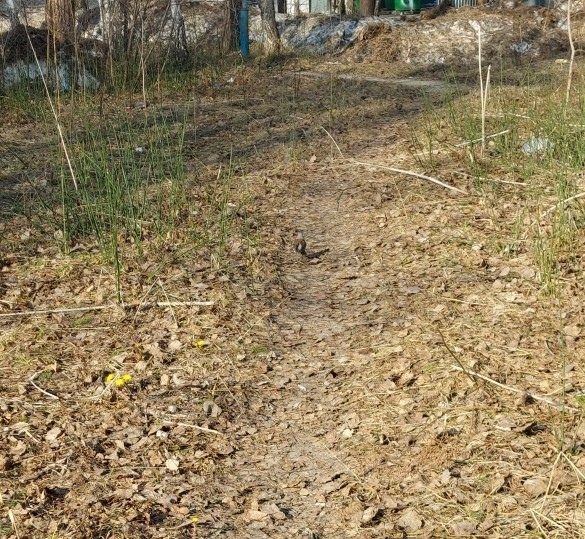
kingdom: Animalia
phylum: Chordata
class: Aves
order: Passeriformes
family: Turdidae
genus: Turdus
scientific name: Turdus pilaris
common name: Fieldfare
